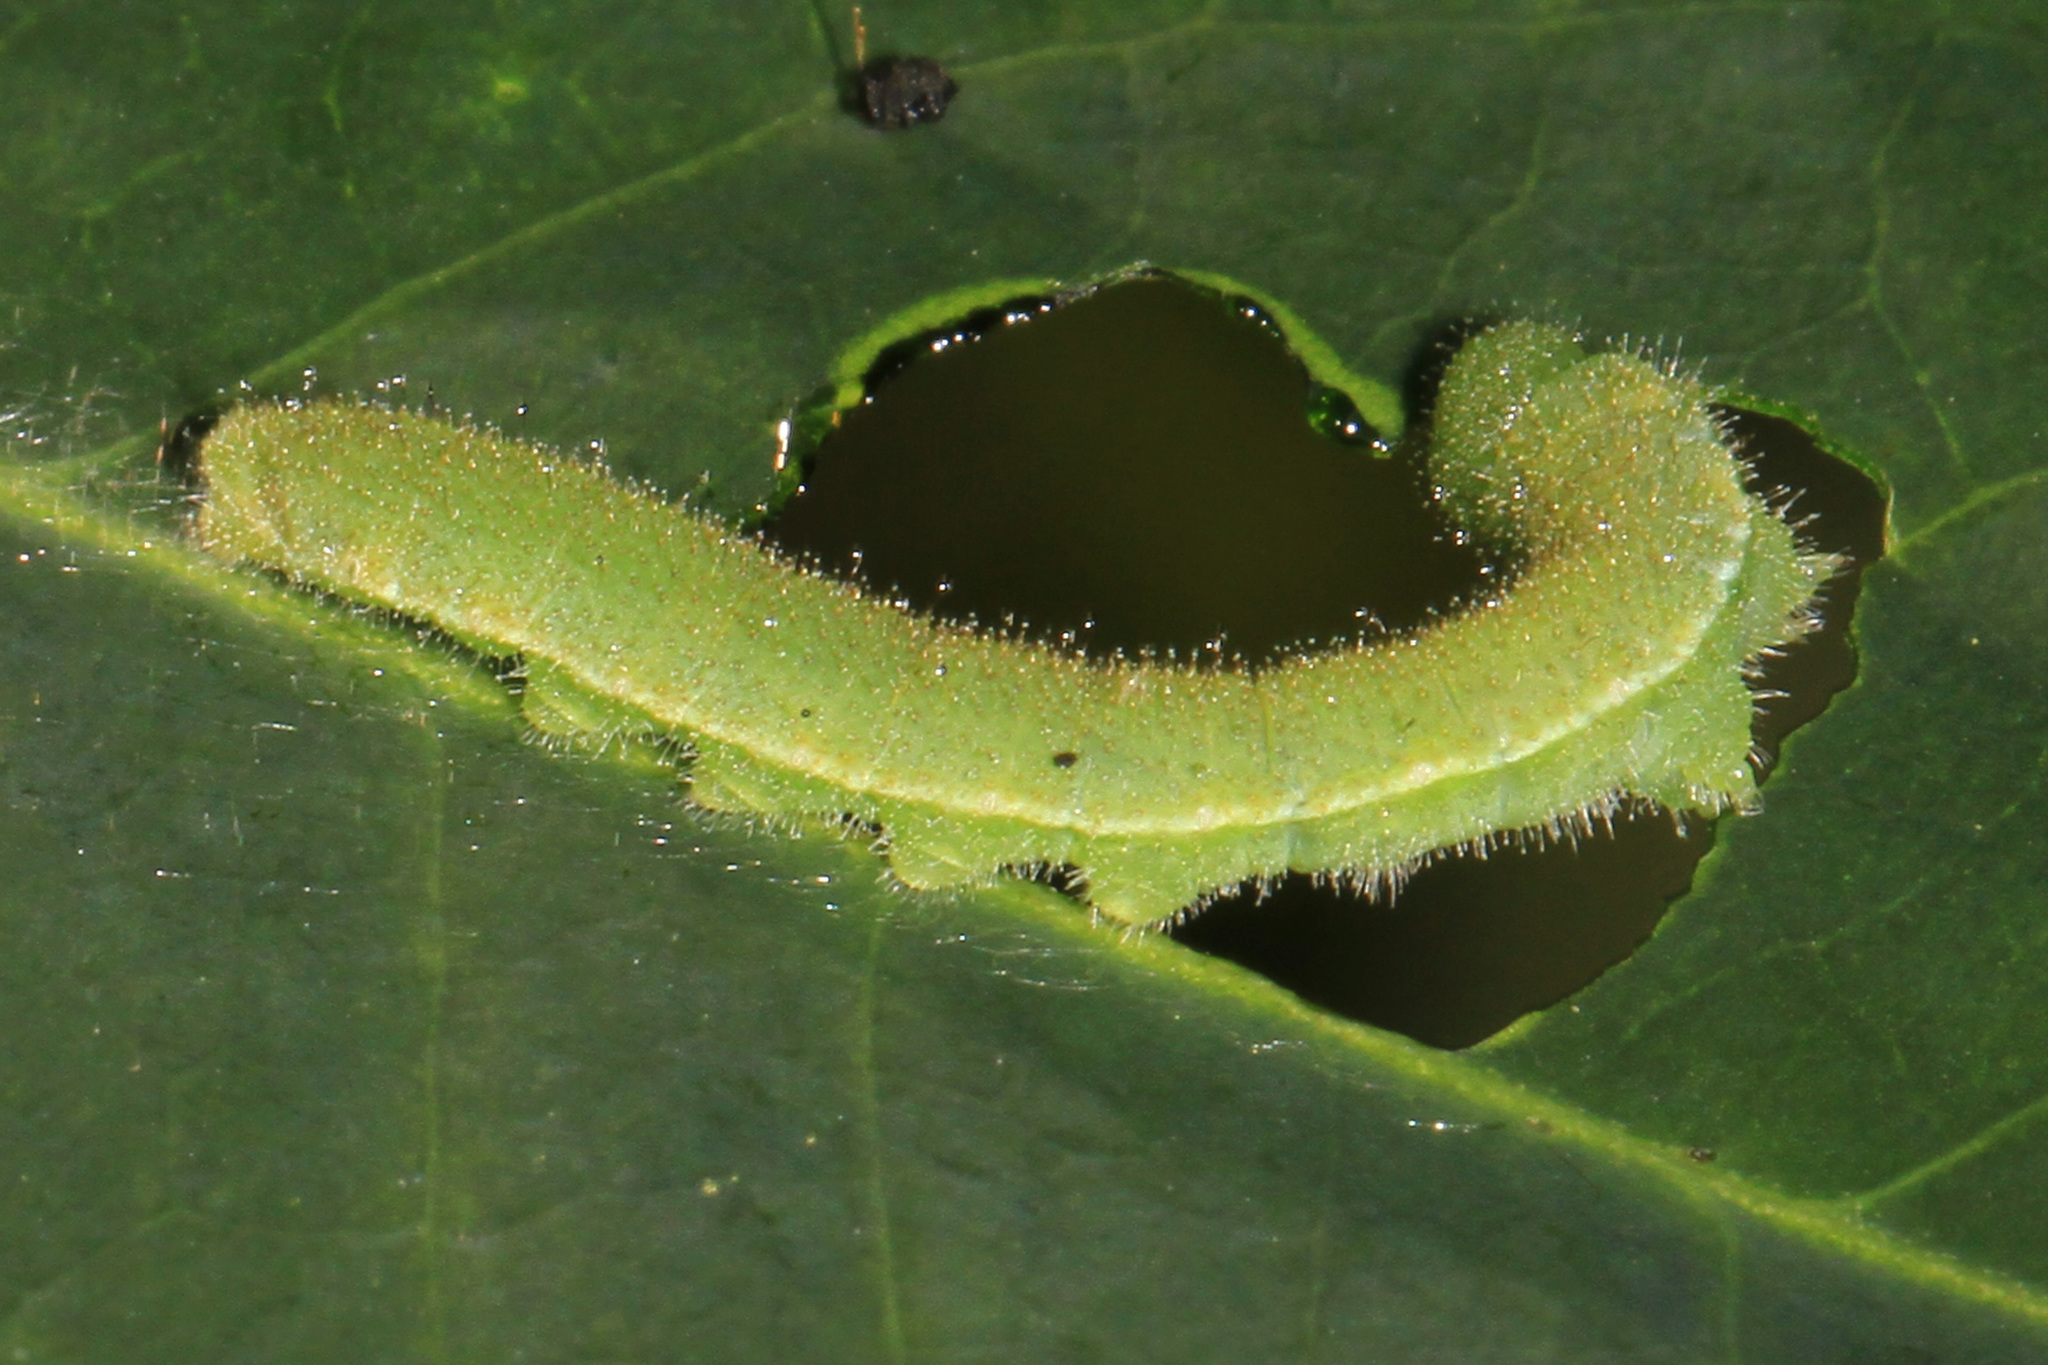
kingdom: Animalia
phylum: Arthropoda
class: Insecta
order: Lepidoptera
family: Pieridae
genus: Abaeis
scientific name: Abaeis nicippe
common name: Sleepy orange
